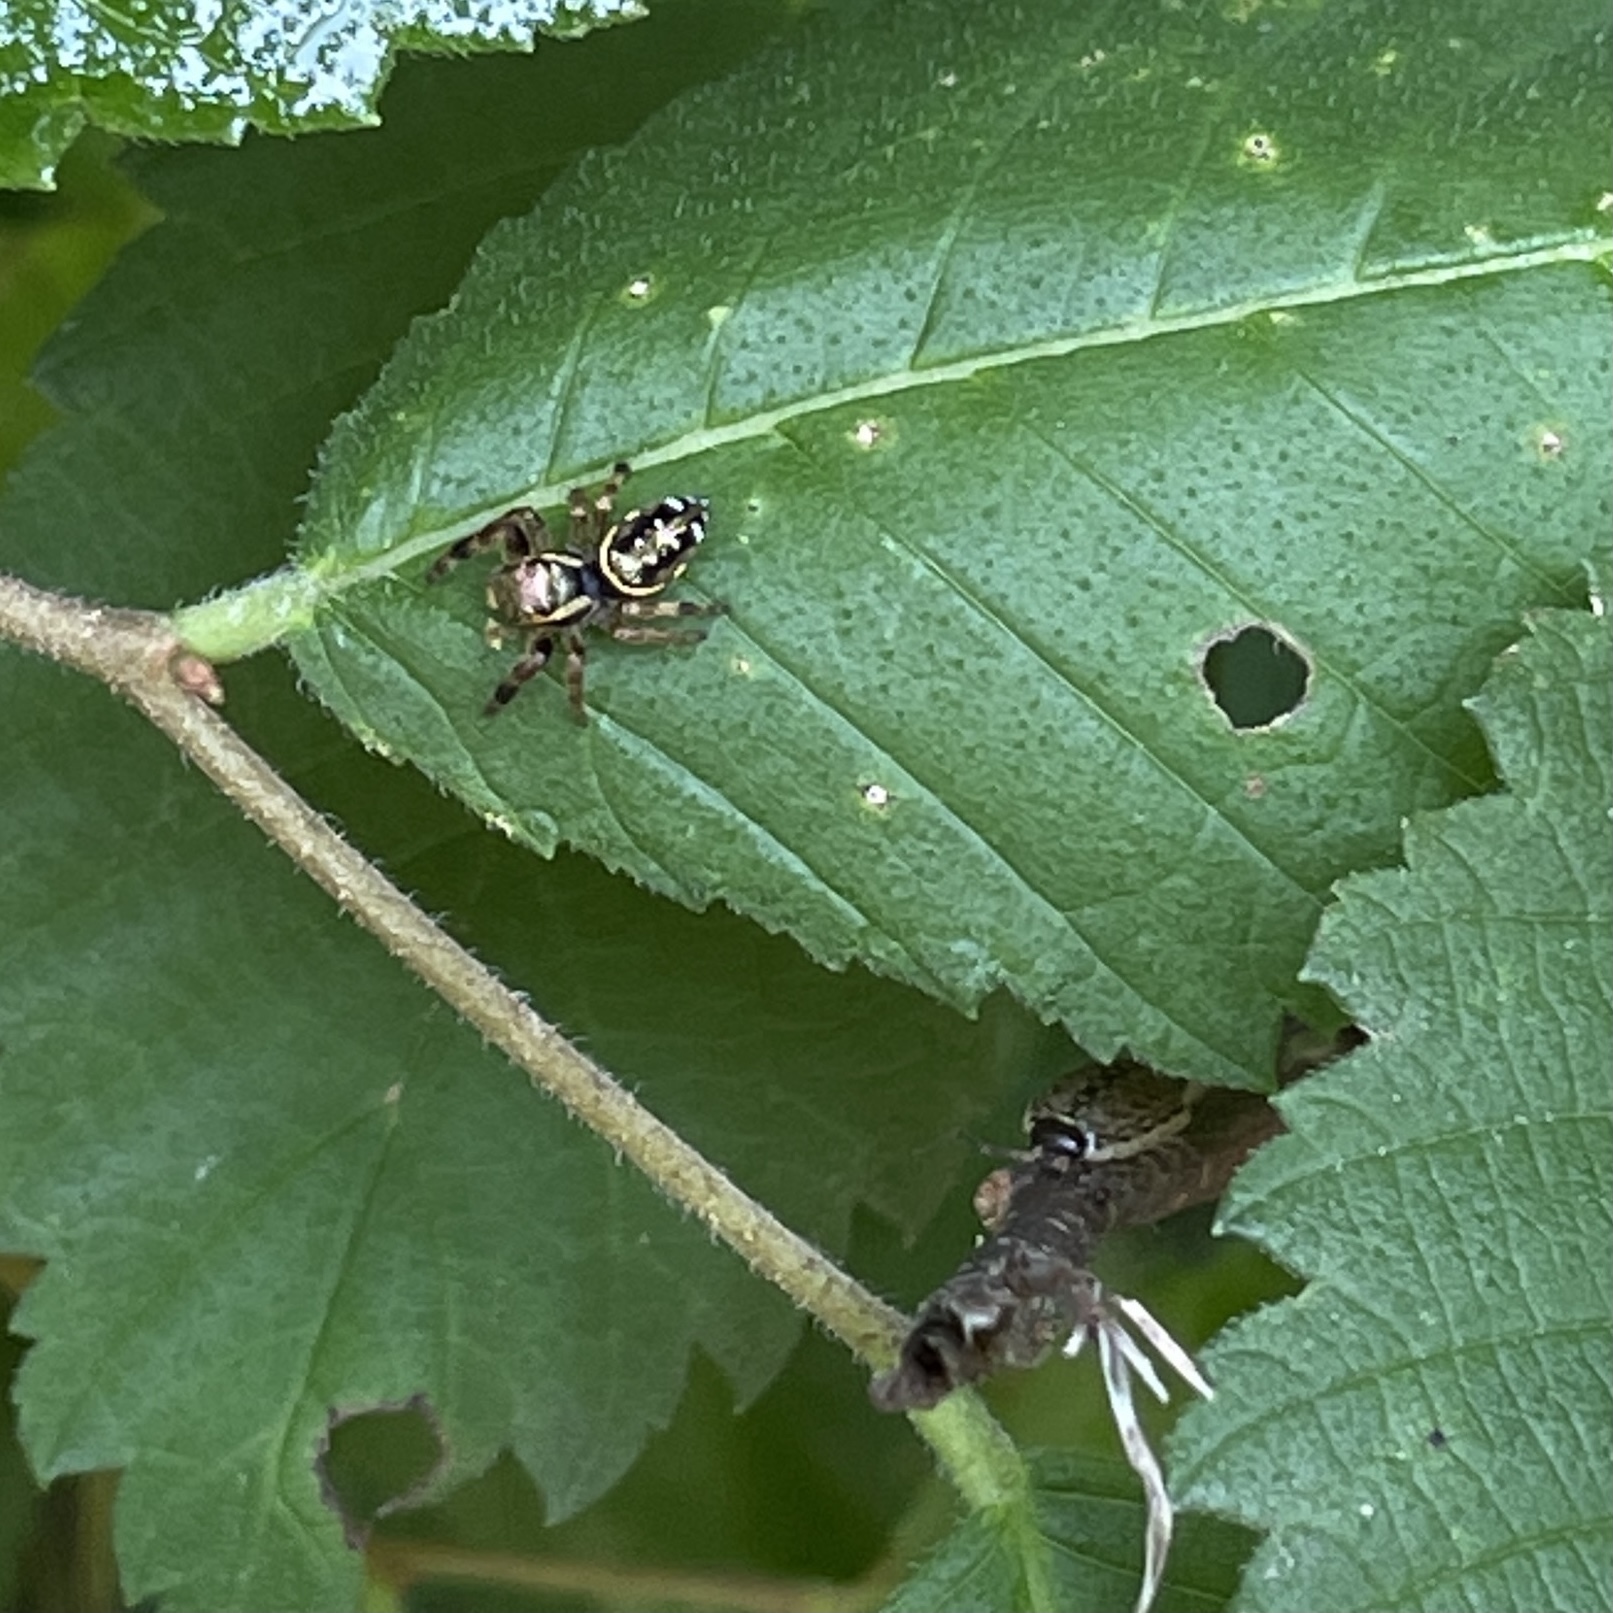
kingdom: Animalia
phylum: Arthropoda
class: Arachnida
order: Araneae
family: Salticidae
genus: Paraphidippus
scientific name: Paraphidippus aurantius
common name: Jumping spiders
